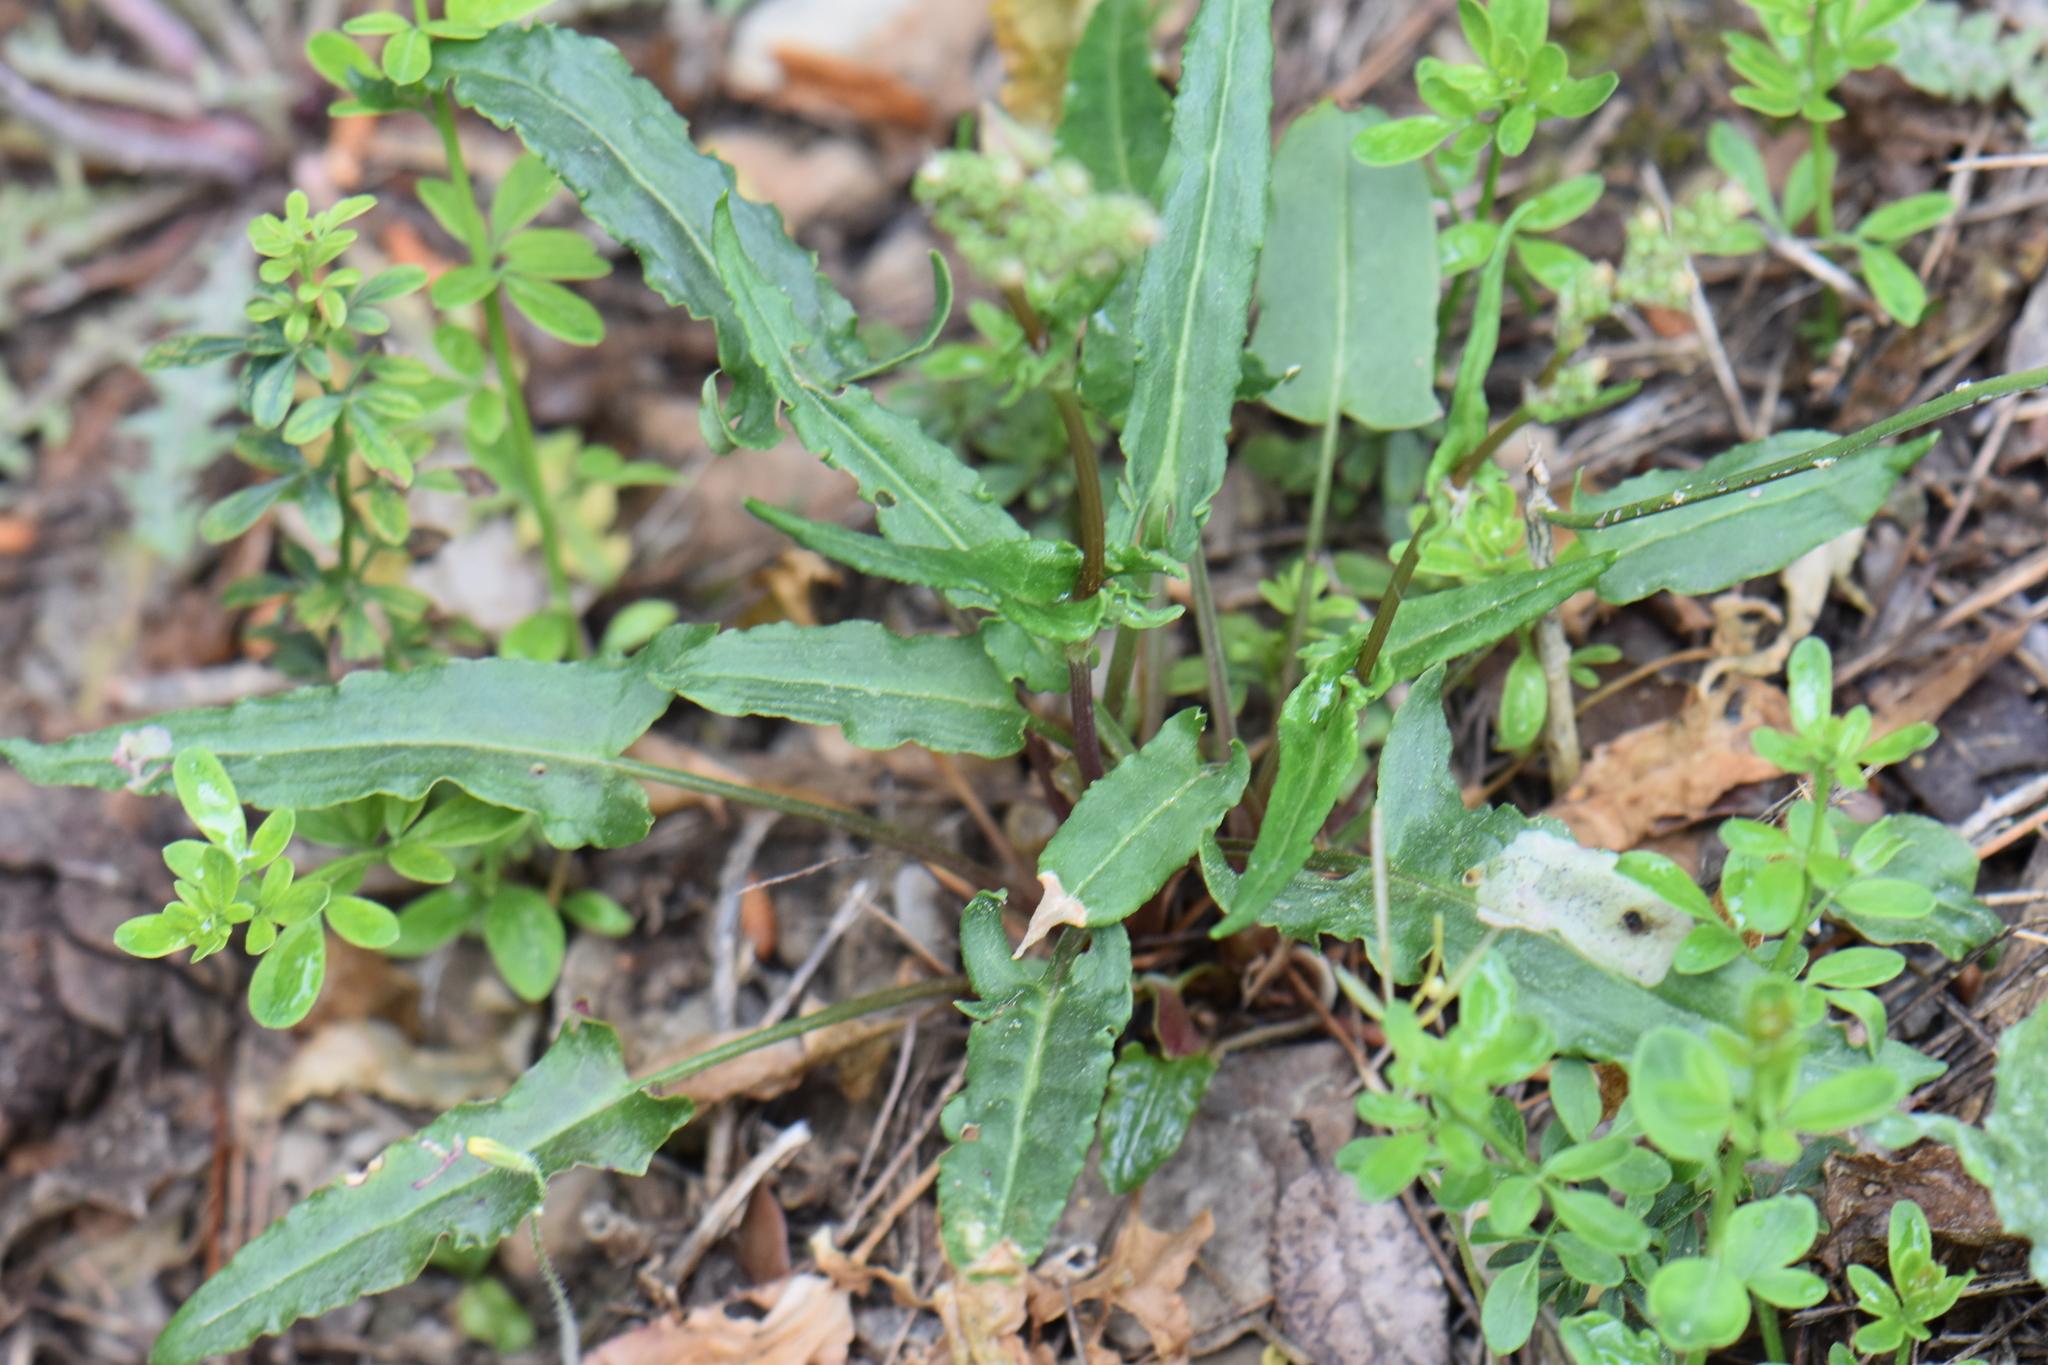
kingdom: Plantae
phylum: Tracheophyta
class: Magnoliopsida
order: Caryophyllales
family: Polygonaceae
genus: Rumex
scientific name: Rumex intermedius
